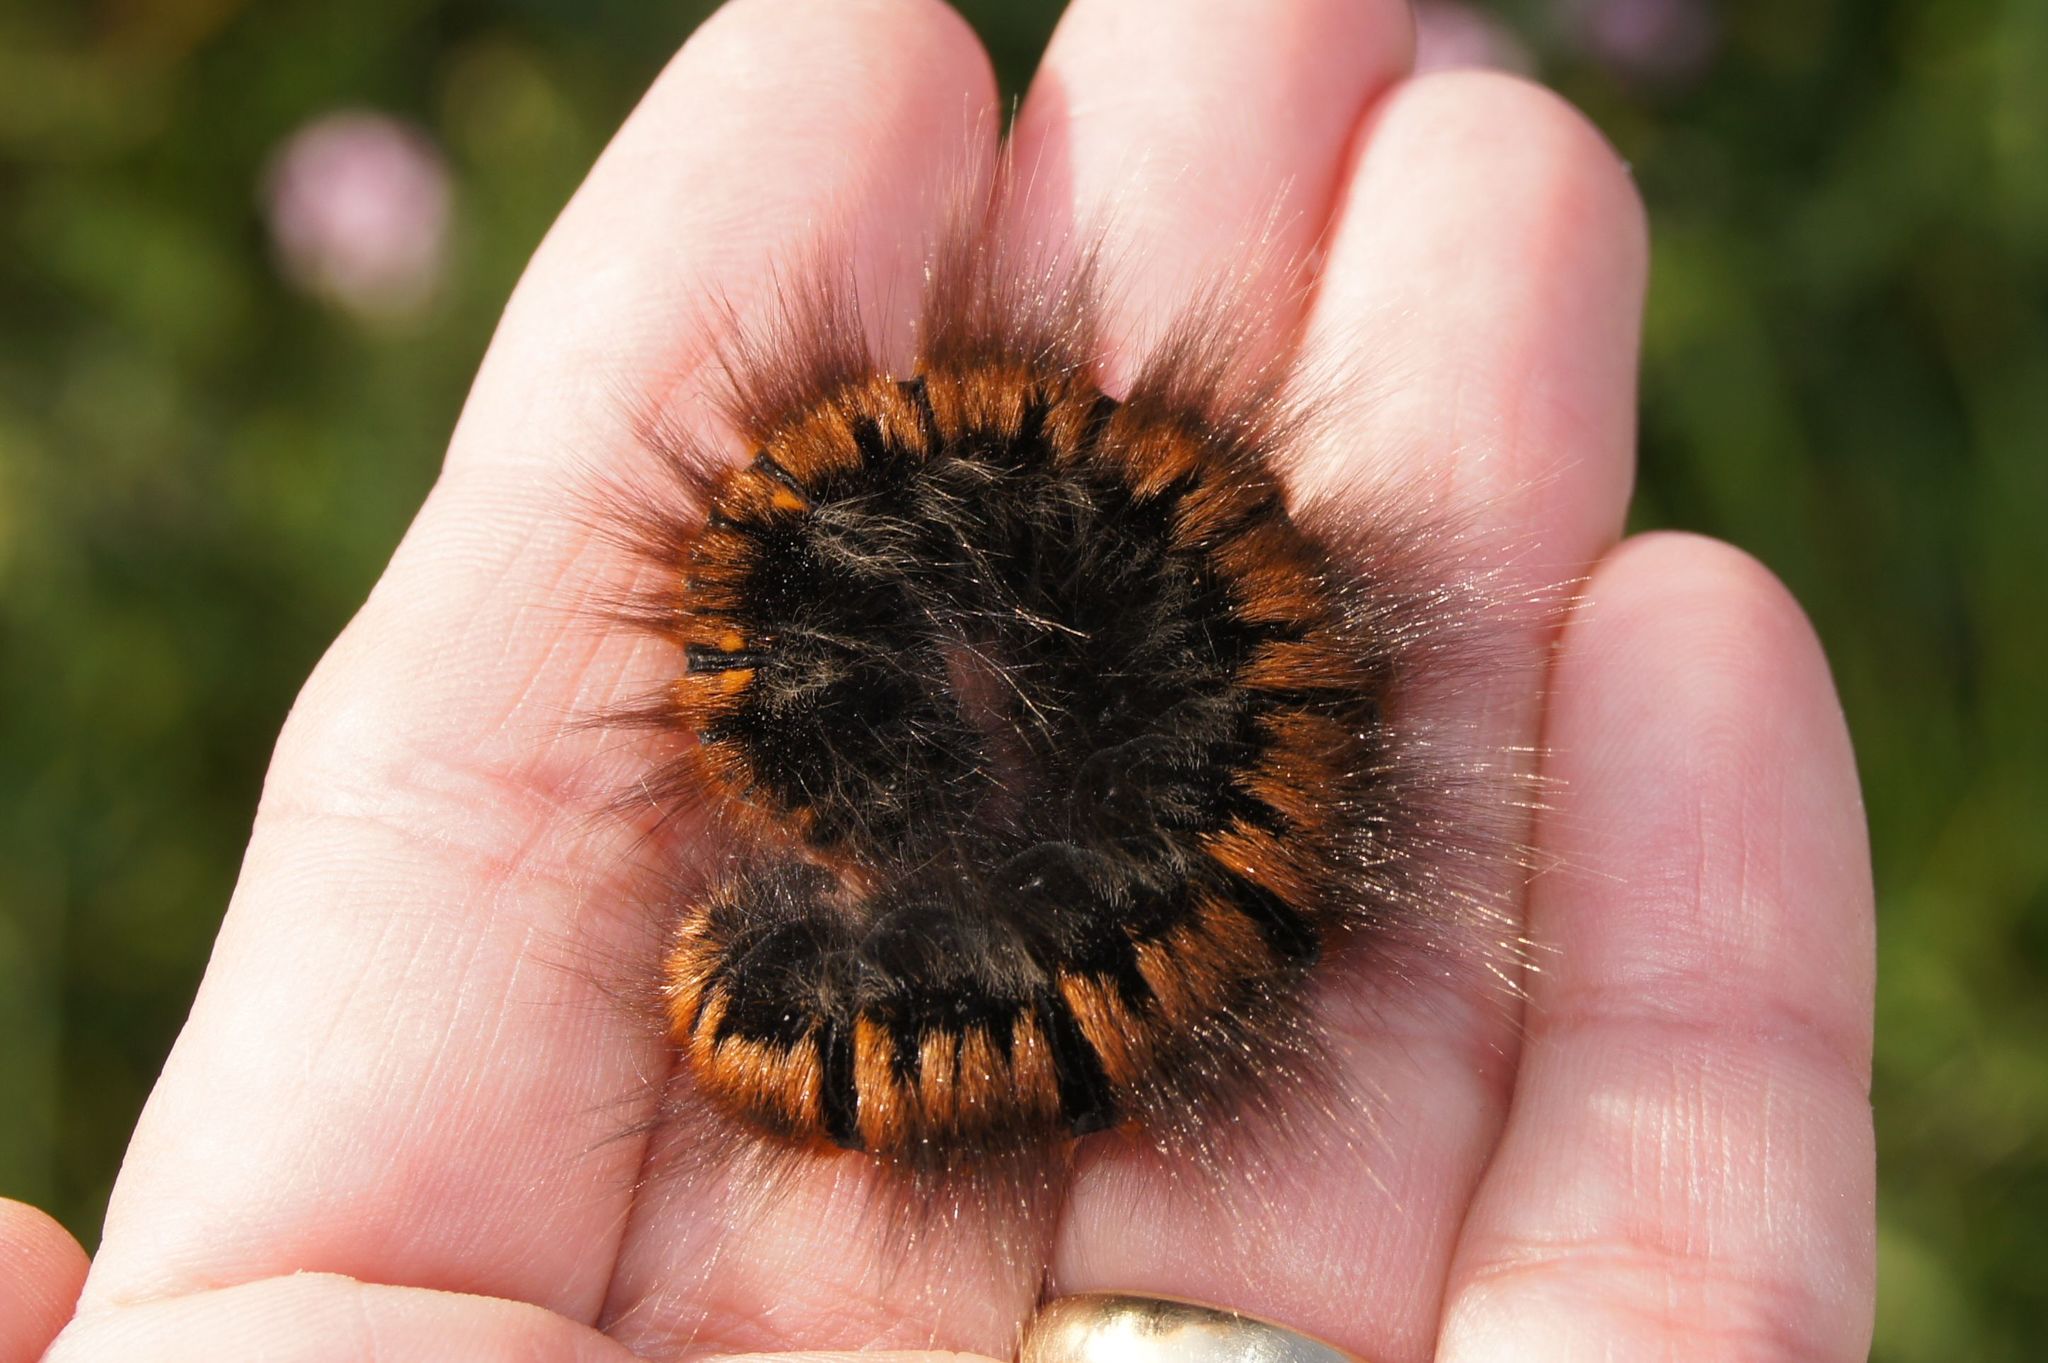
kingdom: Animalia
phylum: Arthropoda
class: Insecta
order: Lepidoptera
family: Lasiocampidae
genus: Macrothylacia
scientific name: Macrothylacia rubi
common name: Fox moth
